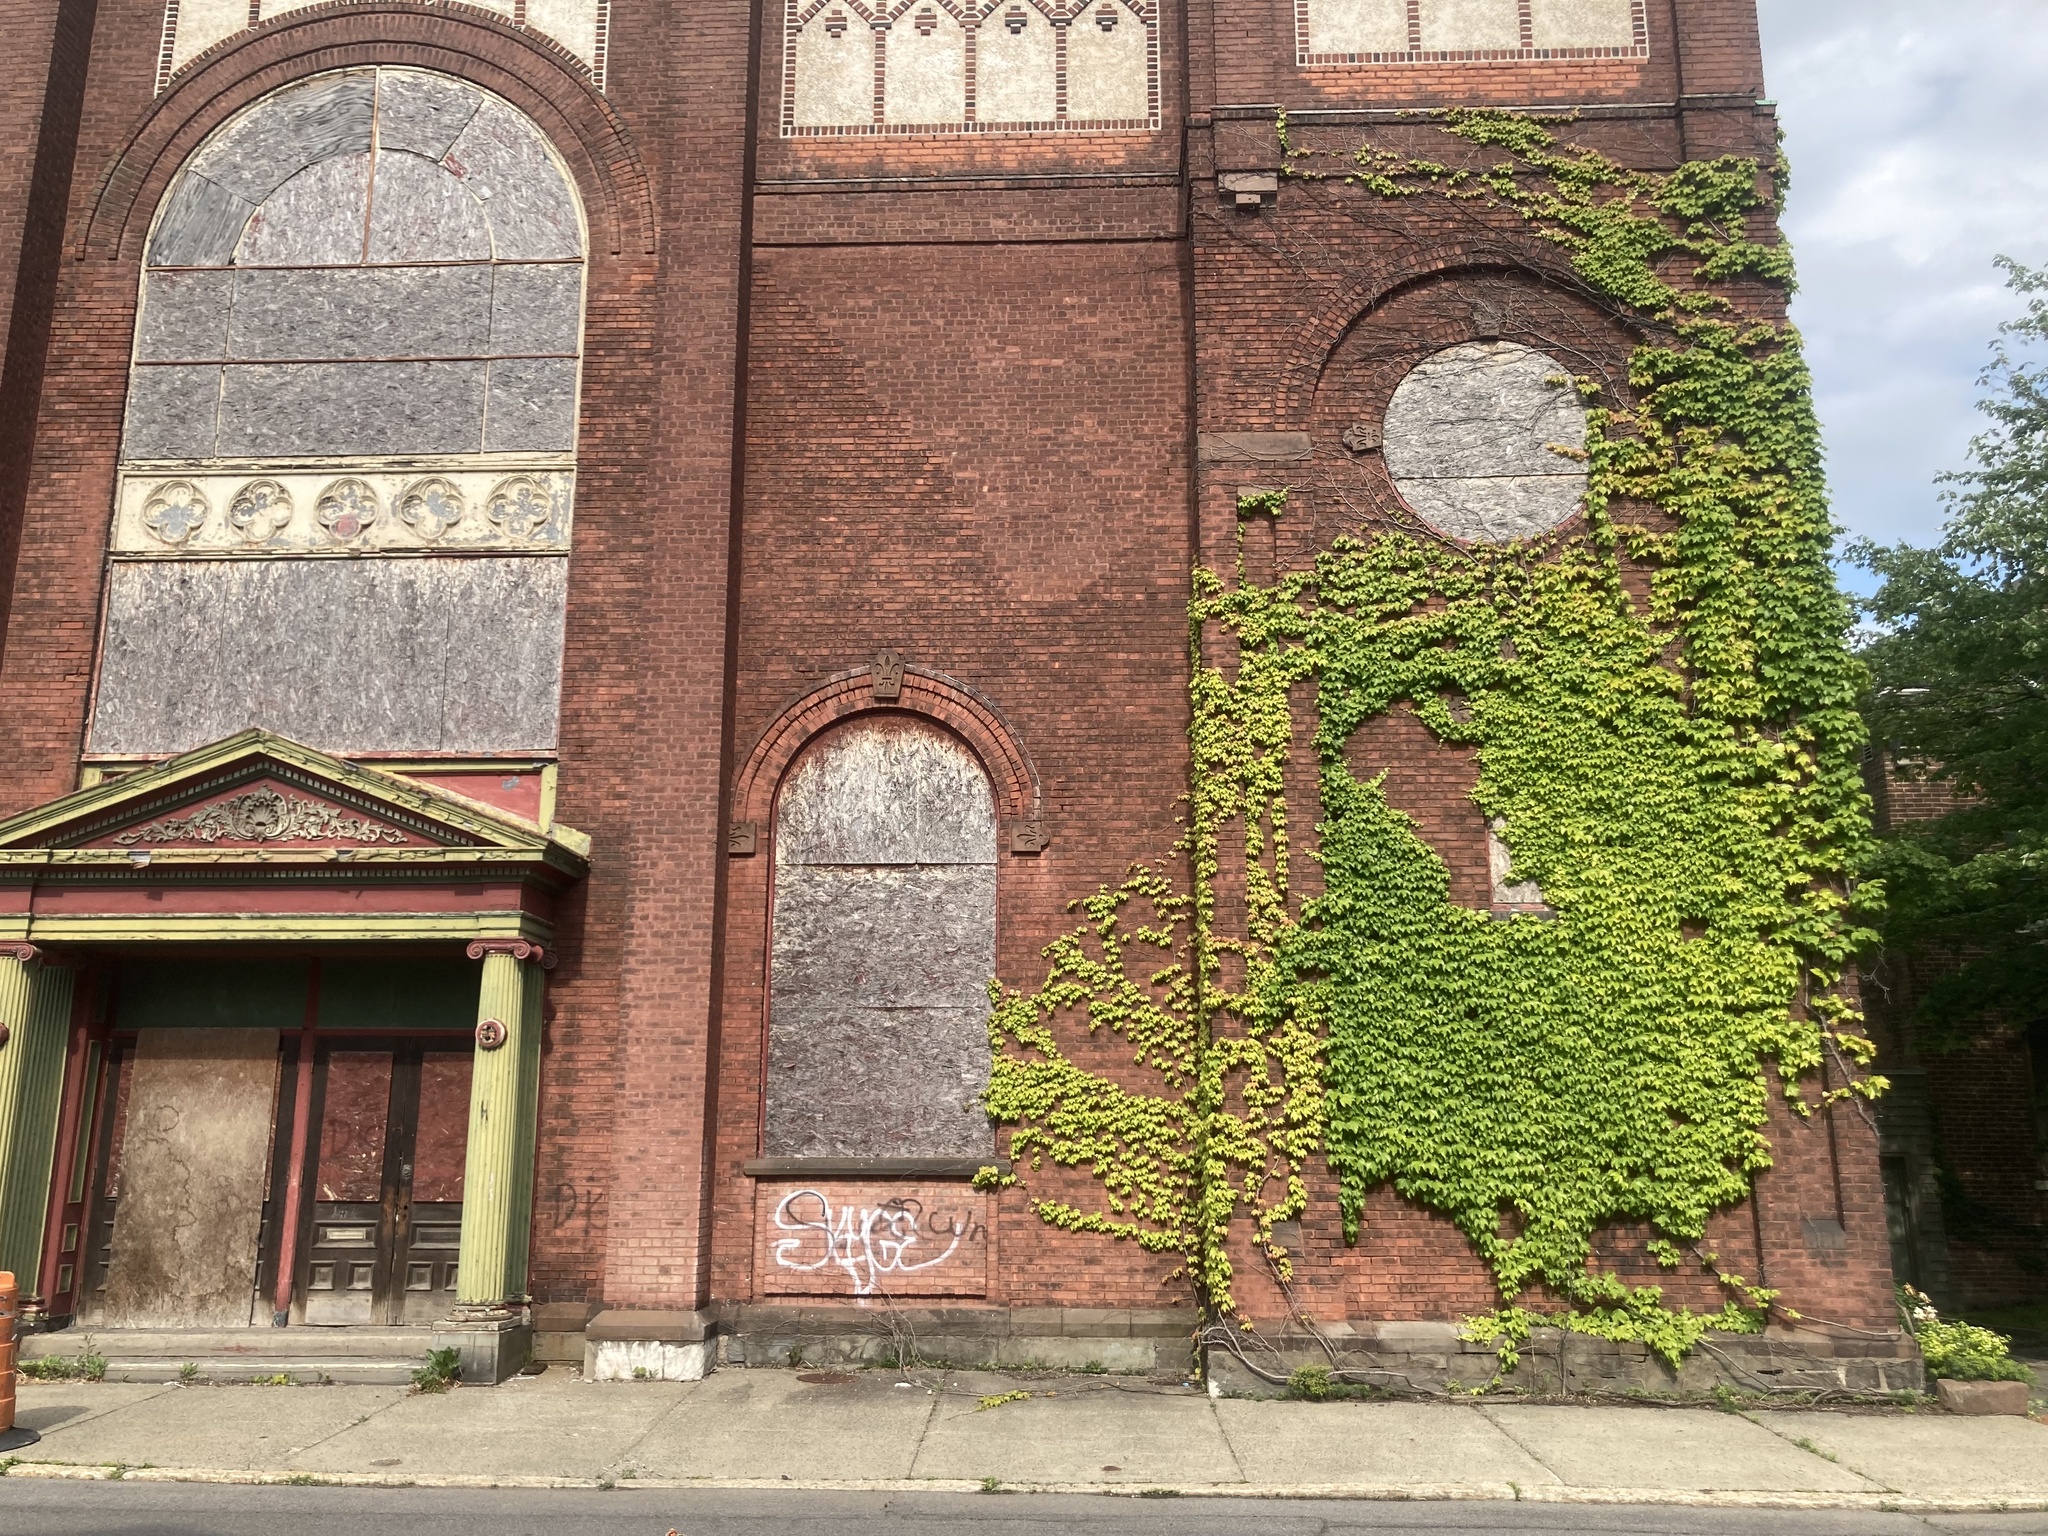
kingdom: Plantae
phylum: Tracheophyta
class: Magnoliopsida
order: Vitales
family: Vitaceae
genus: Parthenocissus
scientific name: Parthenocissus tricuspidata
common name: Boston ivy
